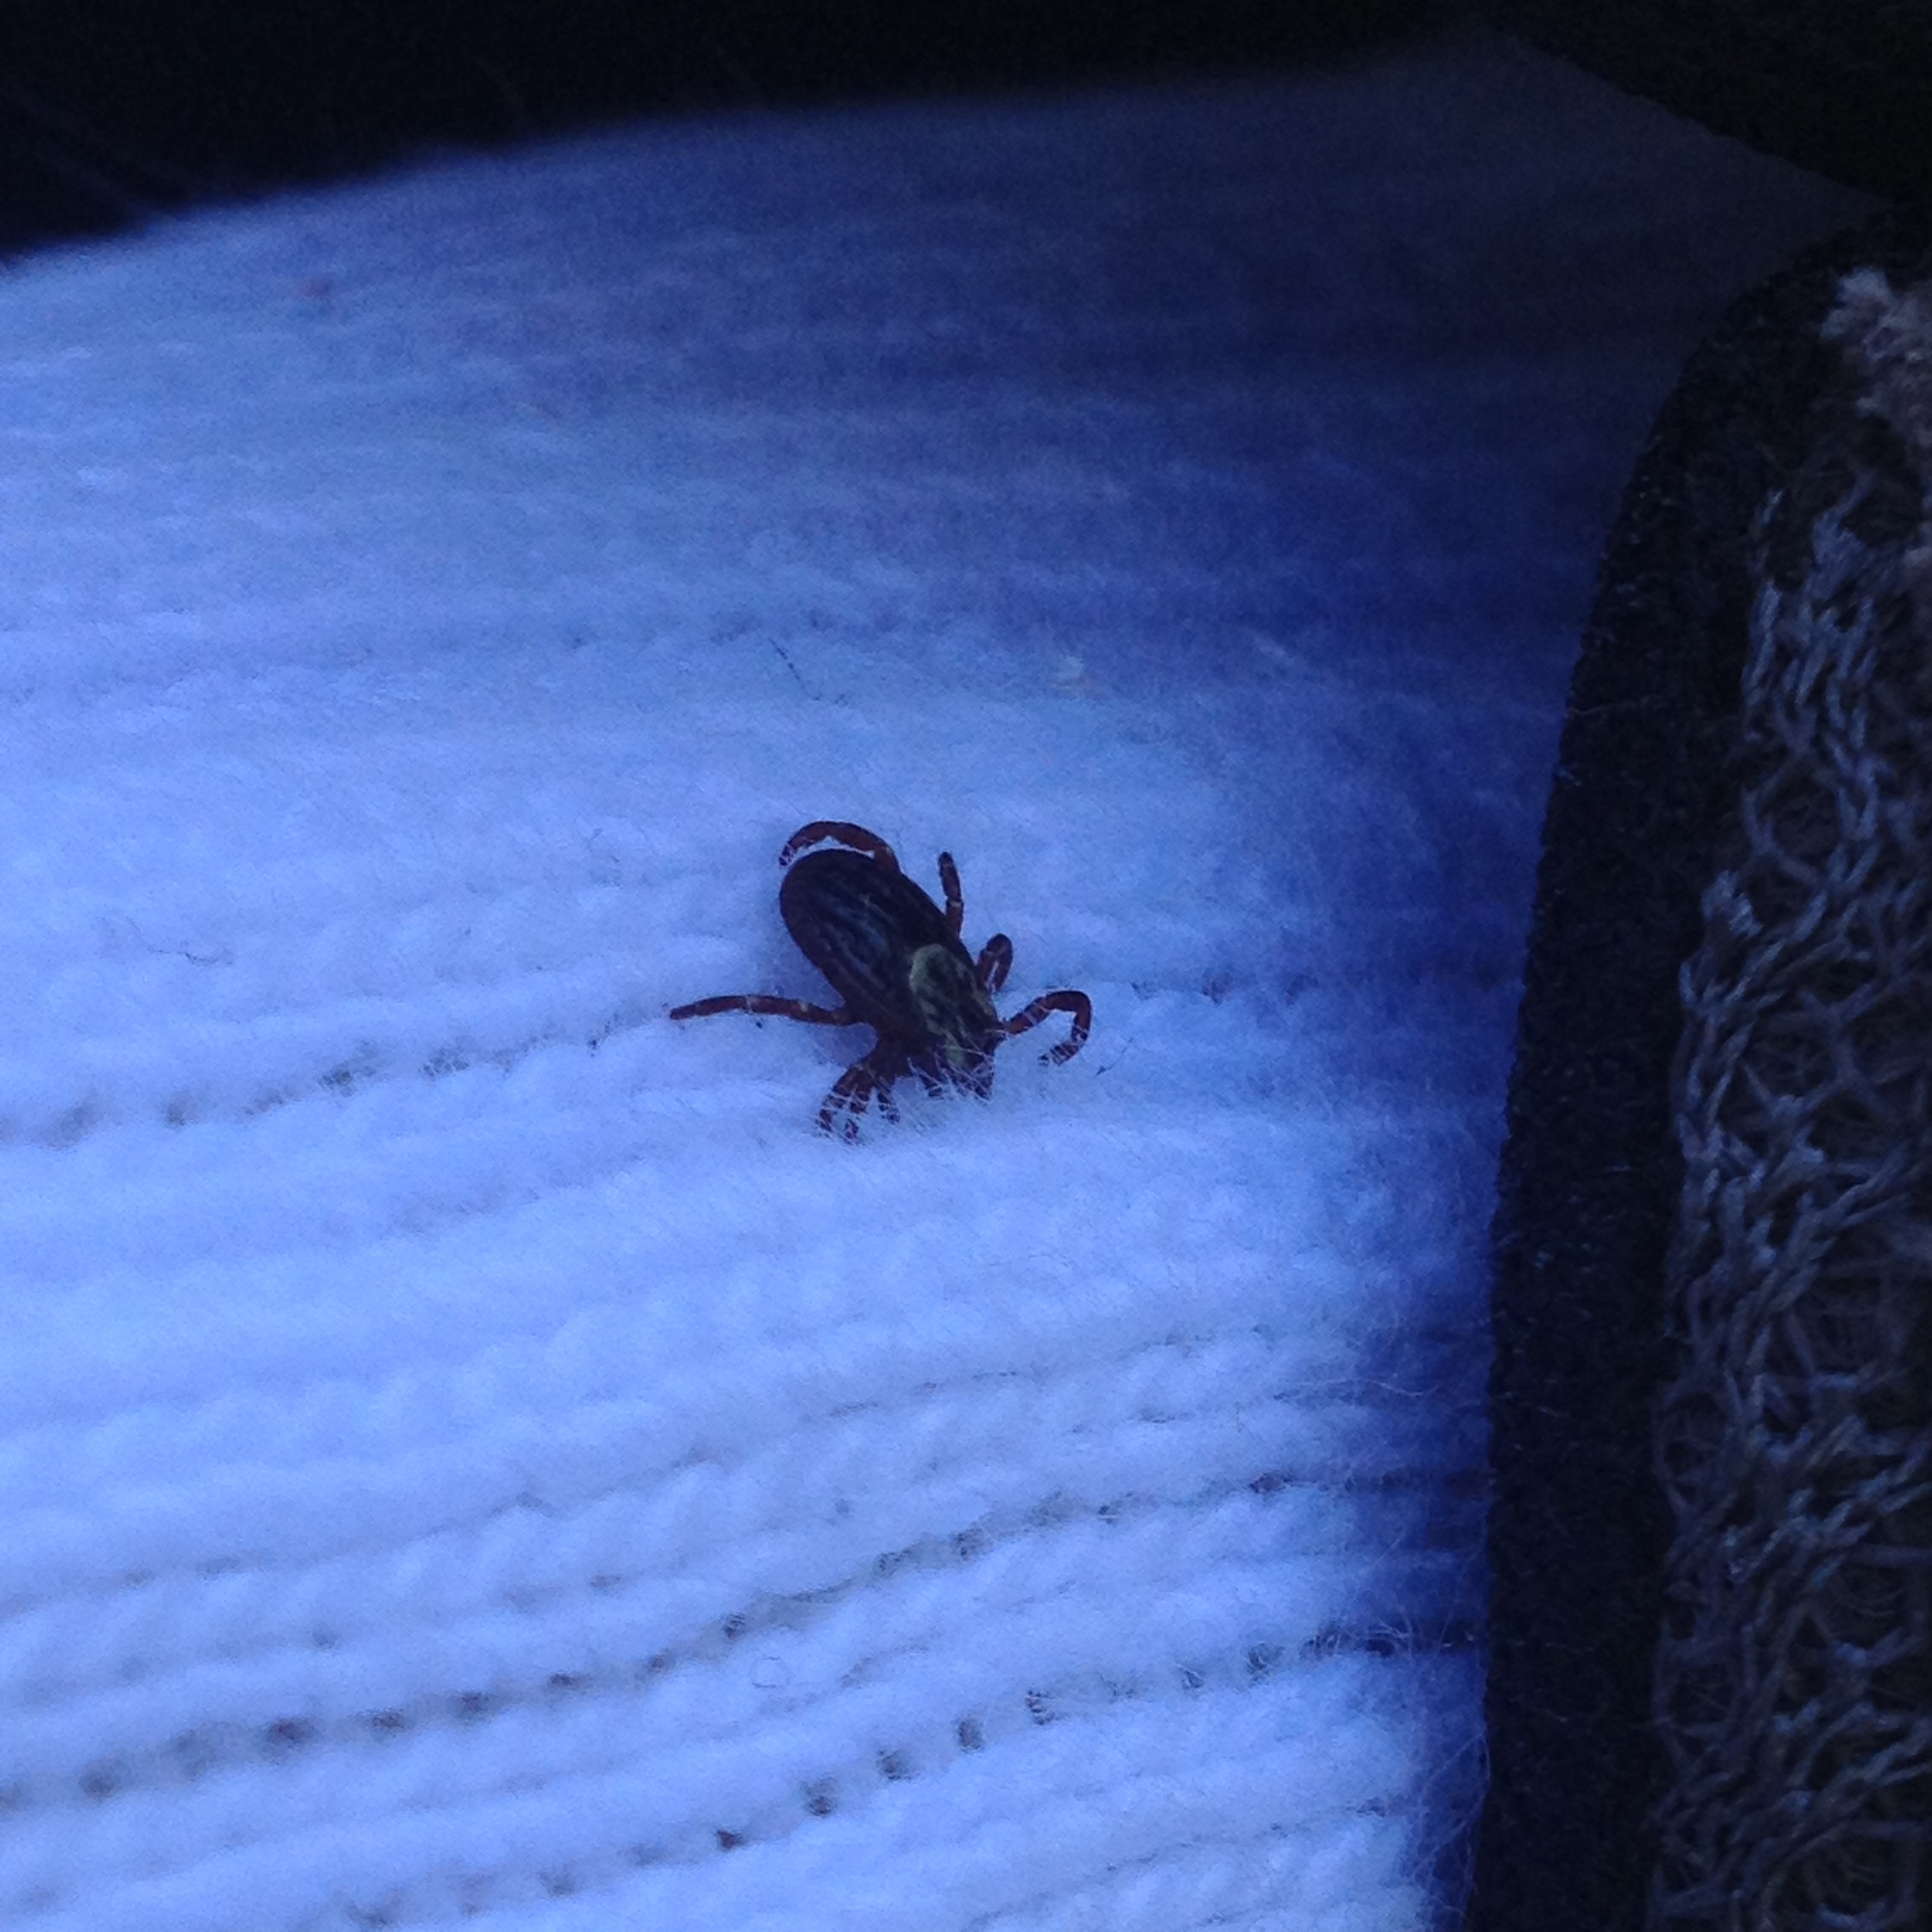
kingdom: Animalia
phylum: Arthropoda
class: Arachnida
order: Ixodida
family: Ixodidae
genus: Dermacentor
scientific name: Dermacentor variabilis
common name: American dog tick
